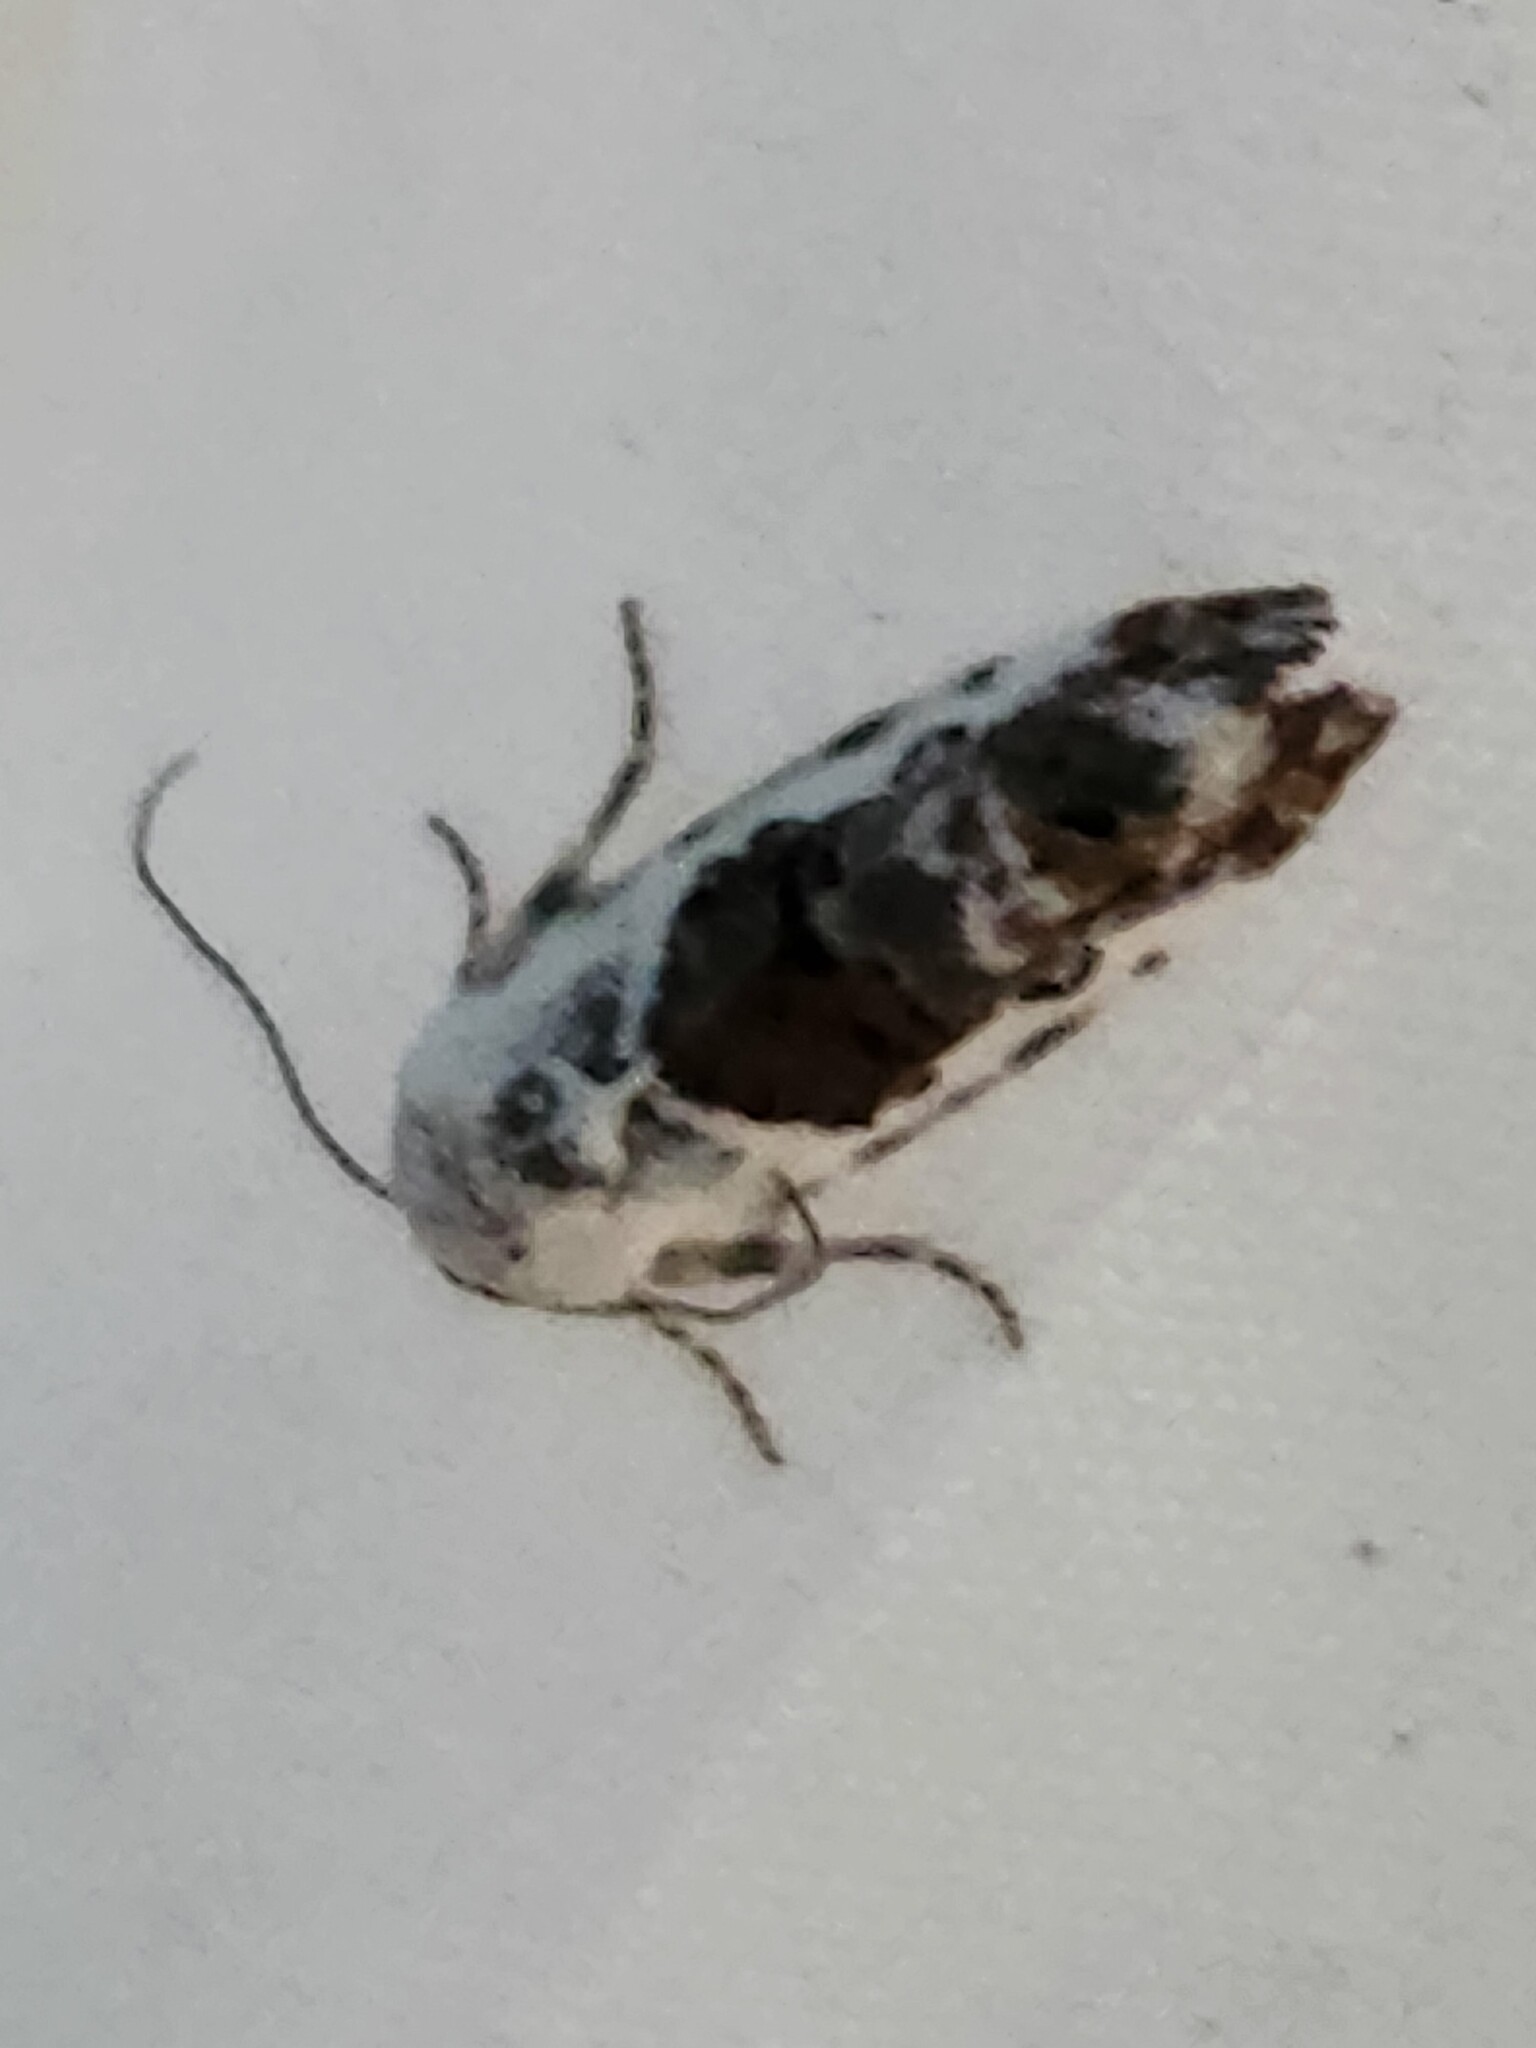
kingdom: Animalia
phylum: Arthropoda
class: Insecta
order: Lepidoptera
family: Noctuidae
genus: Acontia
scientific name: Acontia phecolisca
